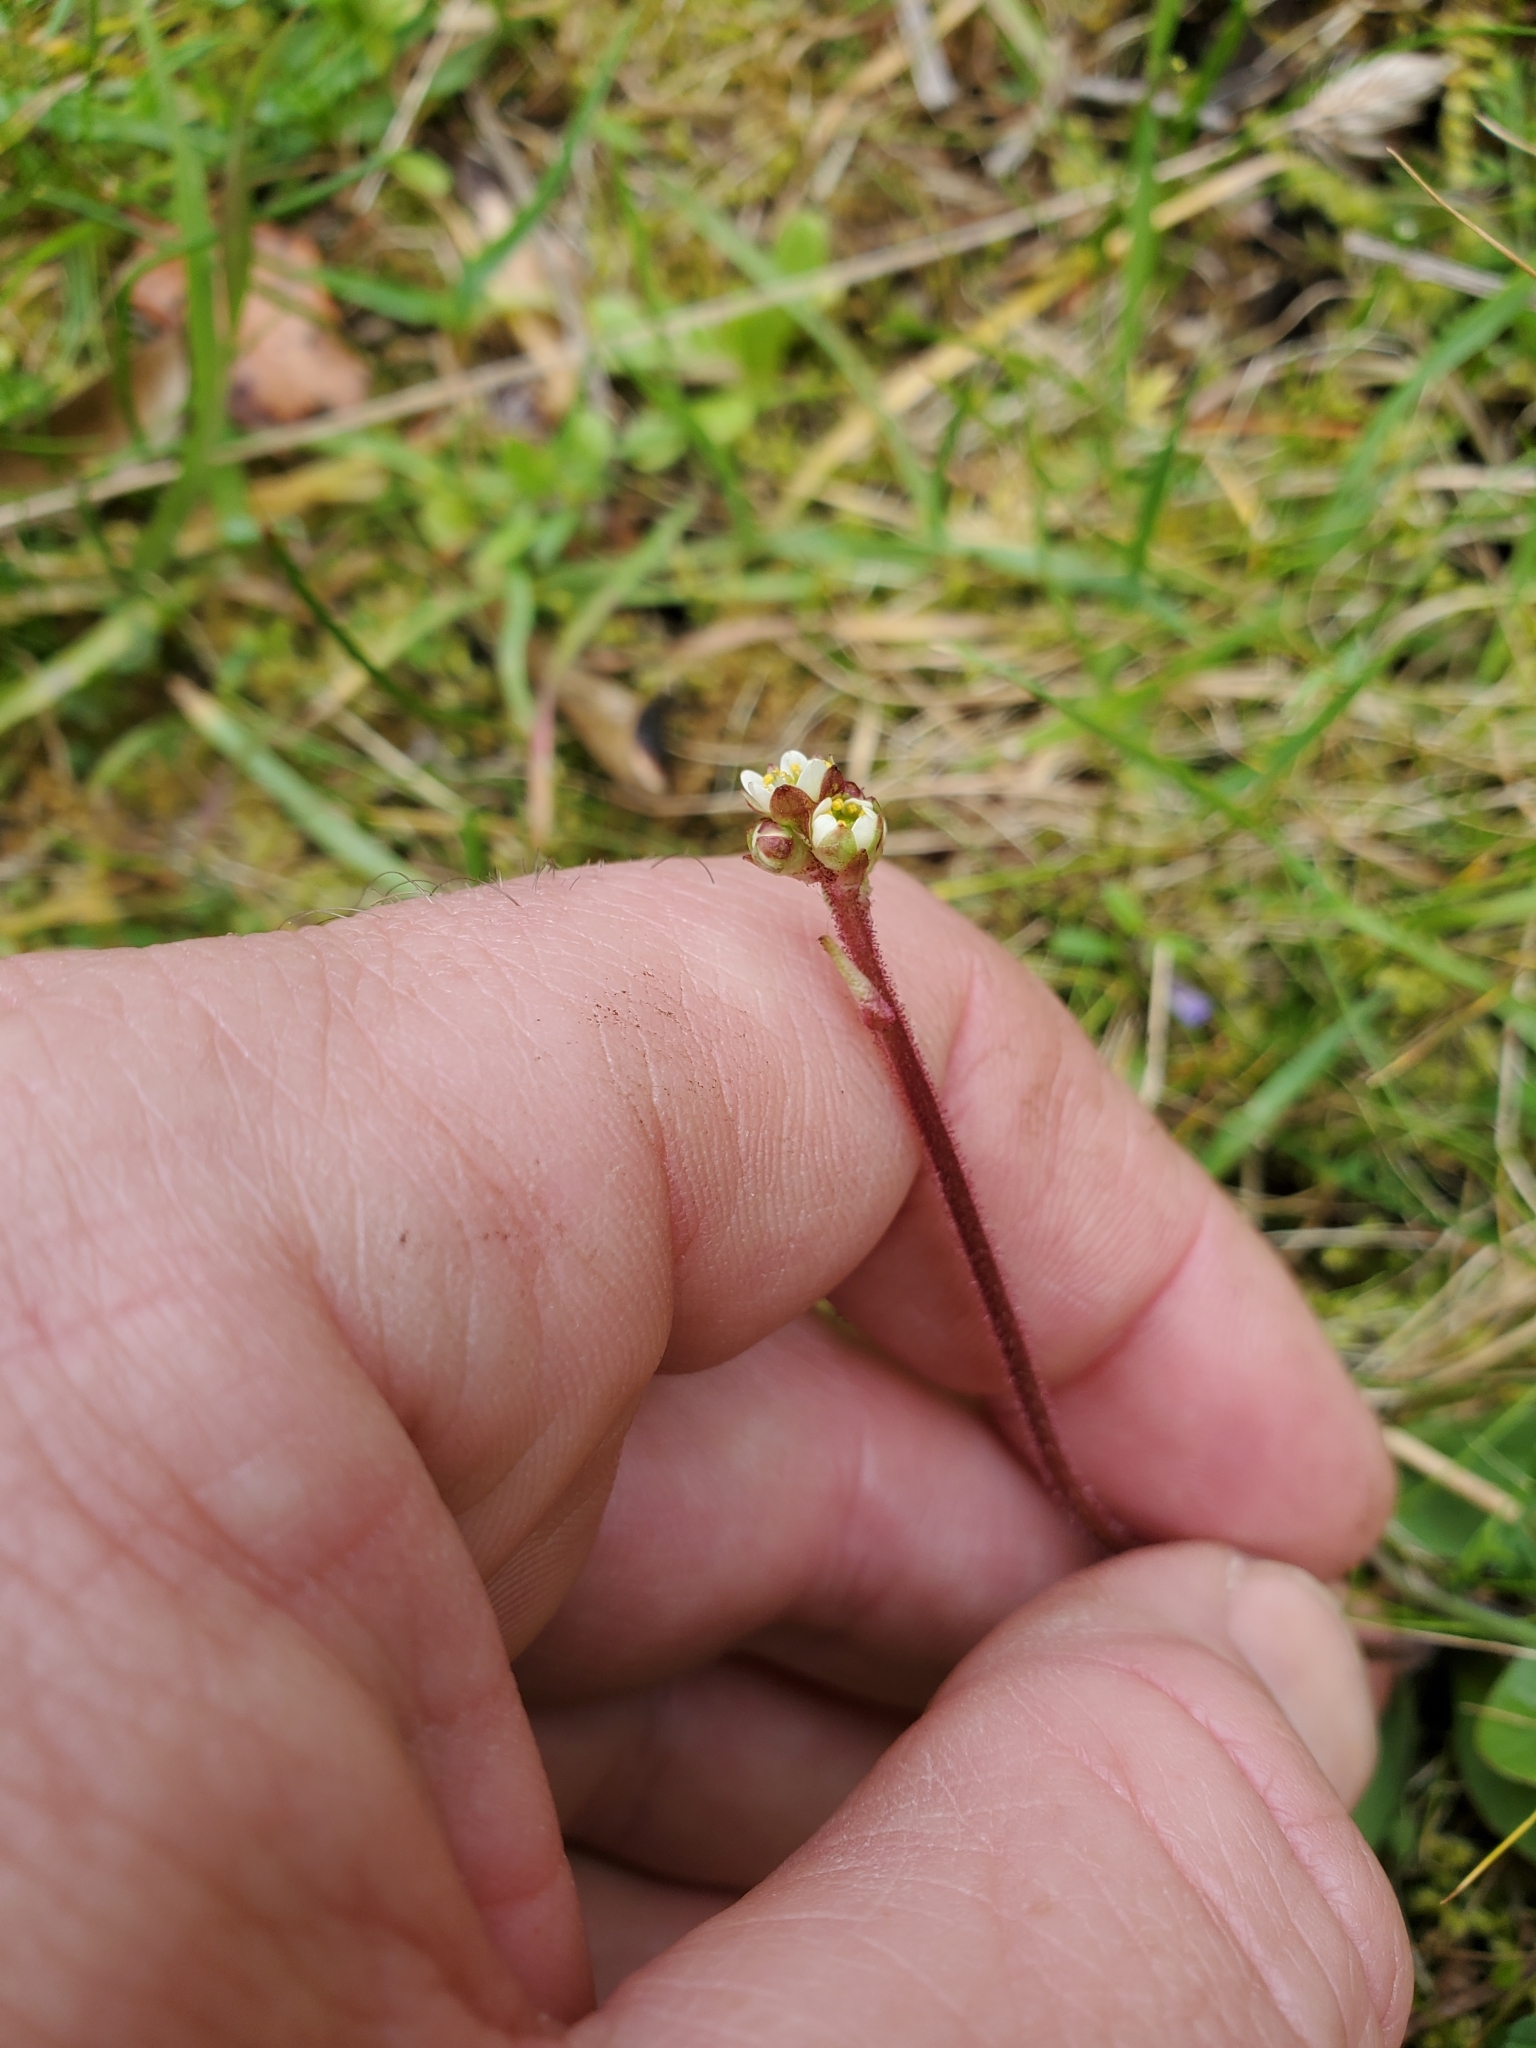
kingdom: Plantae
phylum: Tracheophyta
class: Magnoliopsida
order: Saxifragales
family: Saxifragaceae
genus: Micranthes
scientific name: Micranthes integrifolia
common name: Wholeleaf saxifrage
